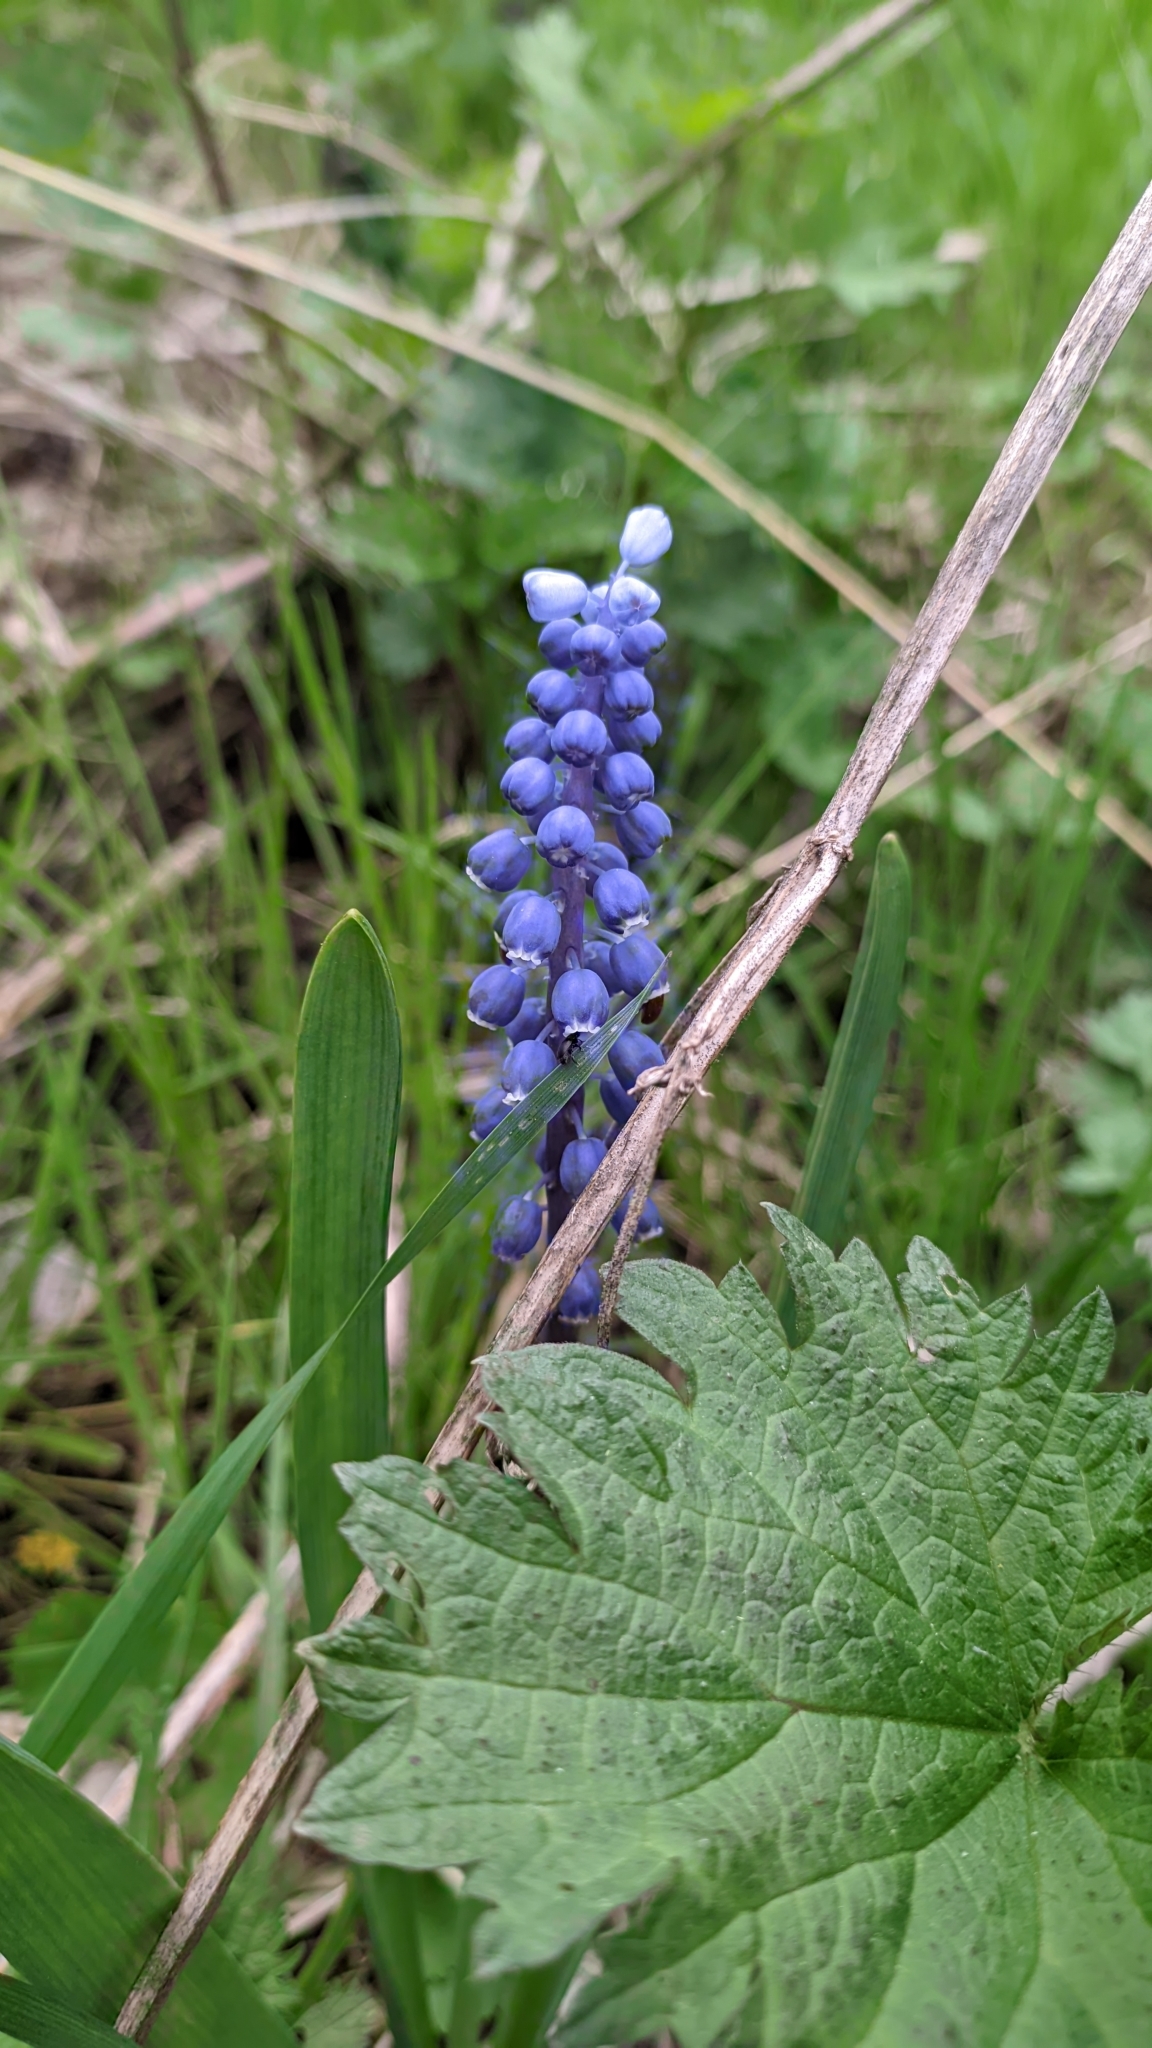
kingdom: Plantae
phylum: Tracheophyta
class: Liliopsida
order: Asparagales
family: Asparagaceae
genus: Muscari
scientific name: Muscari botryoides
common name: Compact grape-hyacinth
